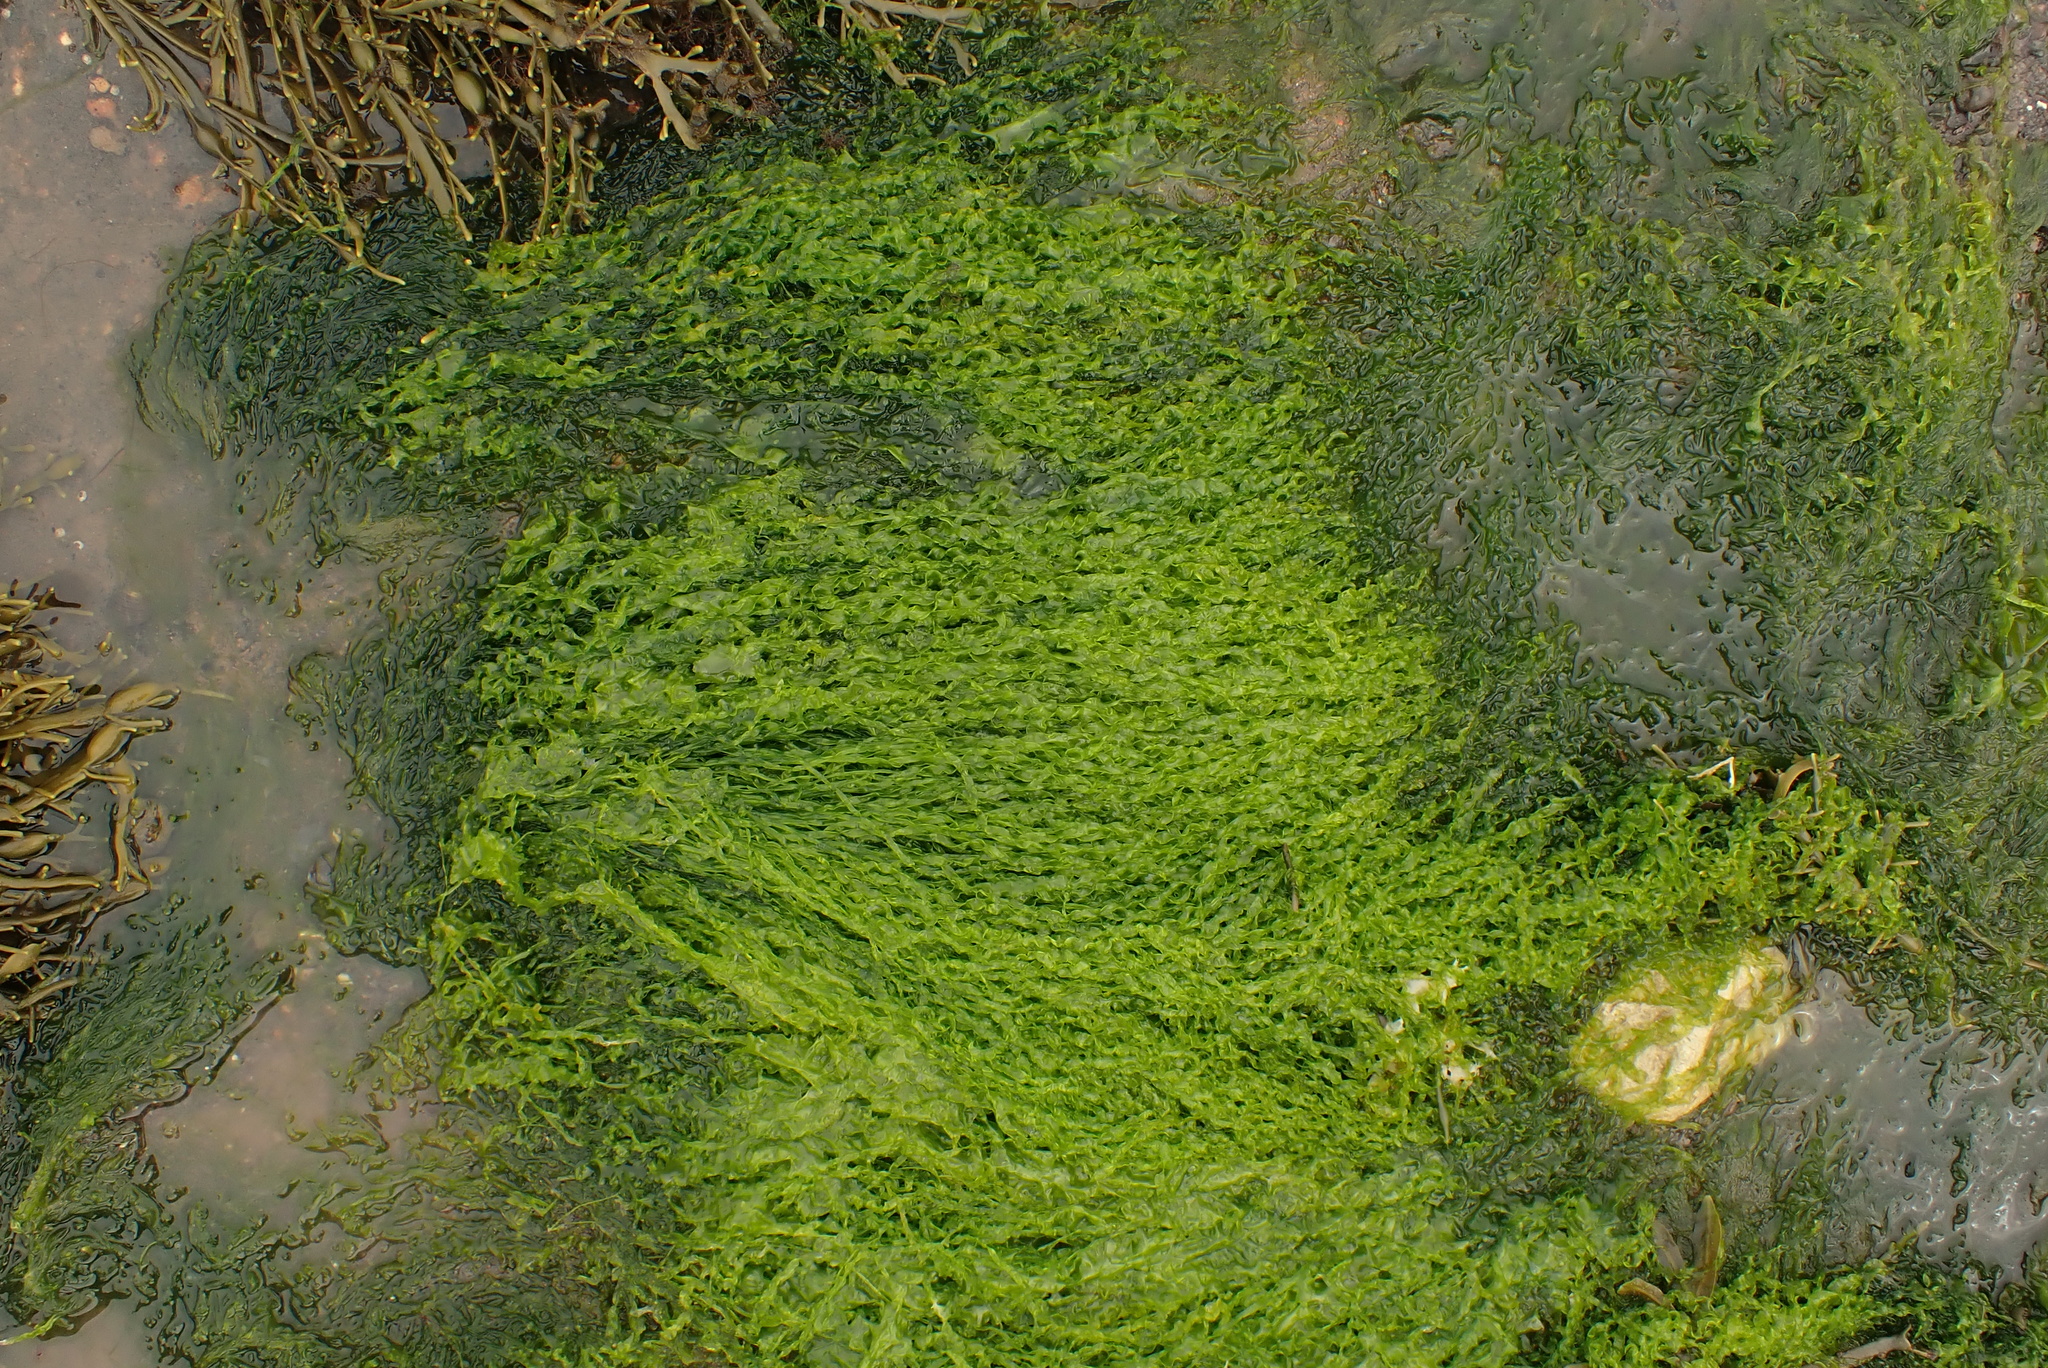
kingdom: Plantae
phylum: Chlorophyta
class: Ulvophyceae
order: Ulvales
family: Ulvaceae
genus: Ulva
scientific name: Ulva intestinalis
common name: Gut weed
